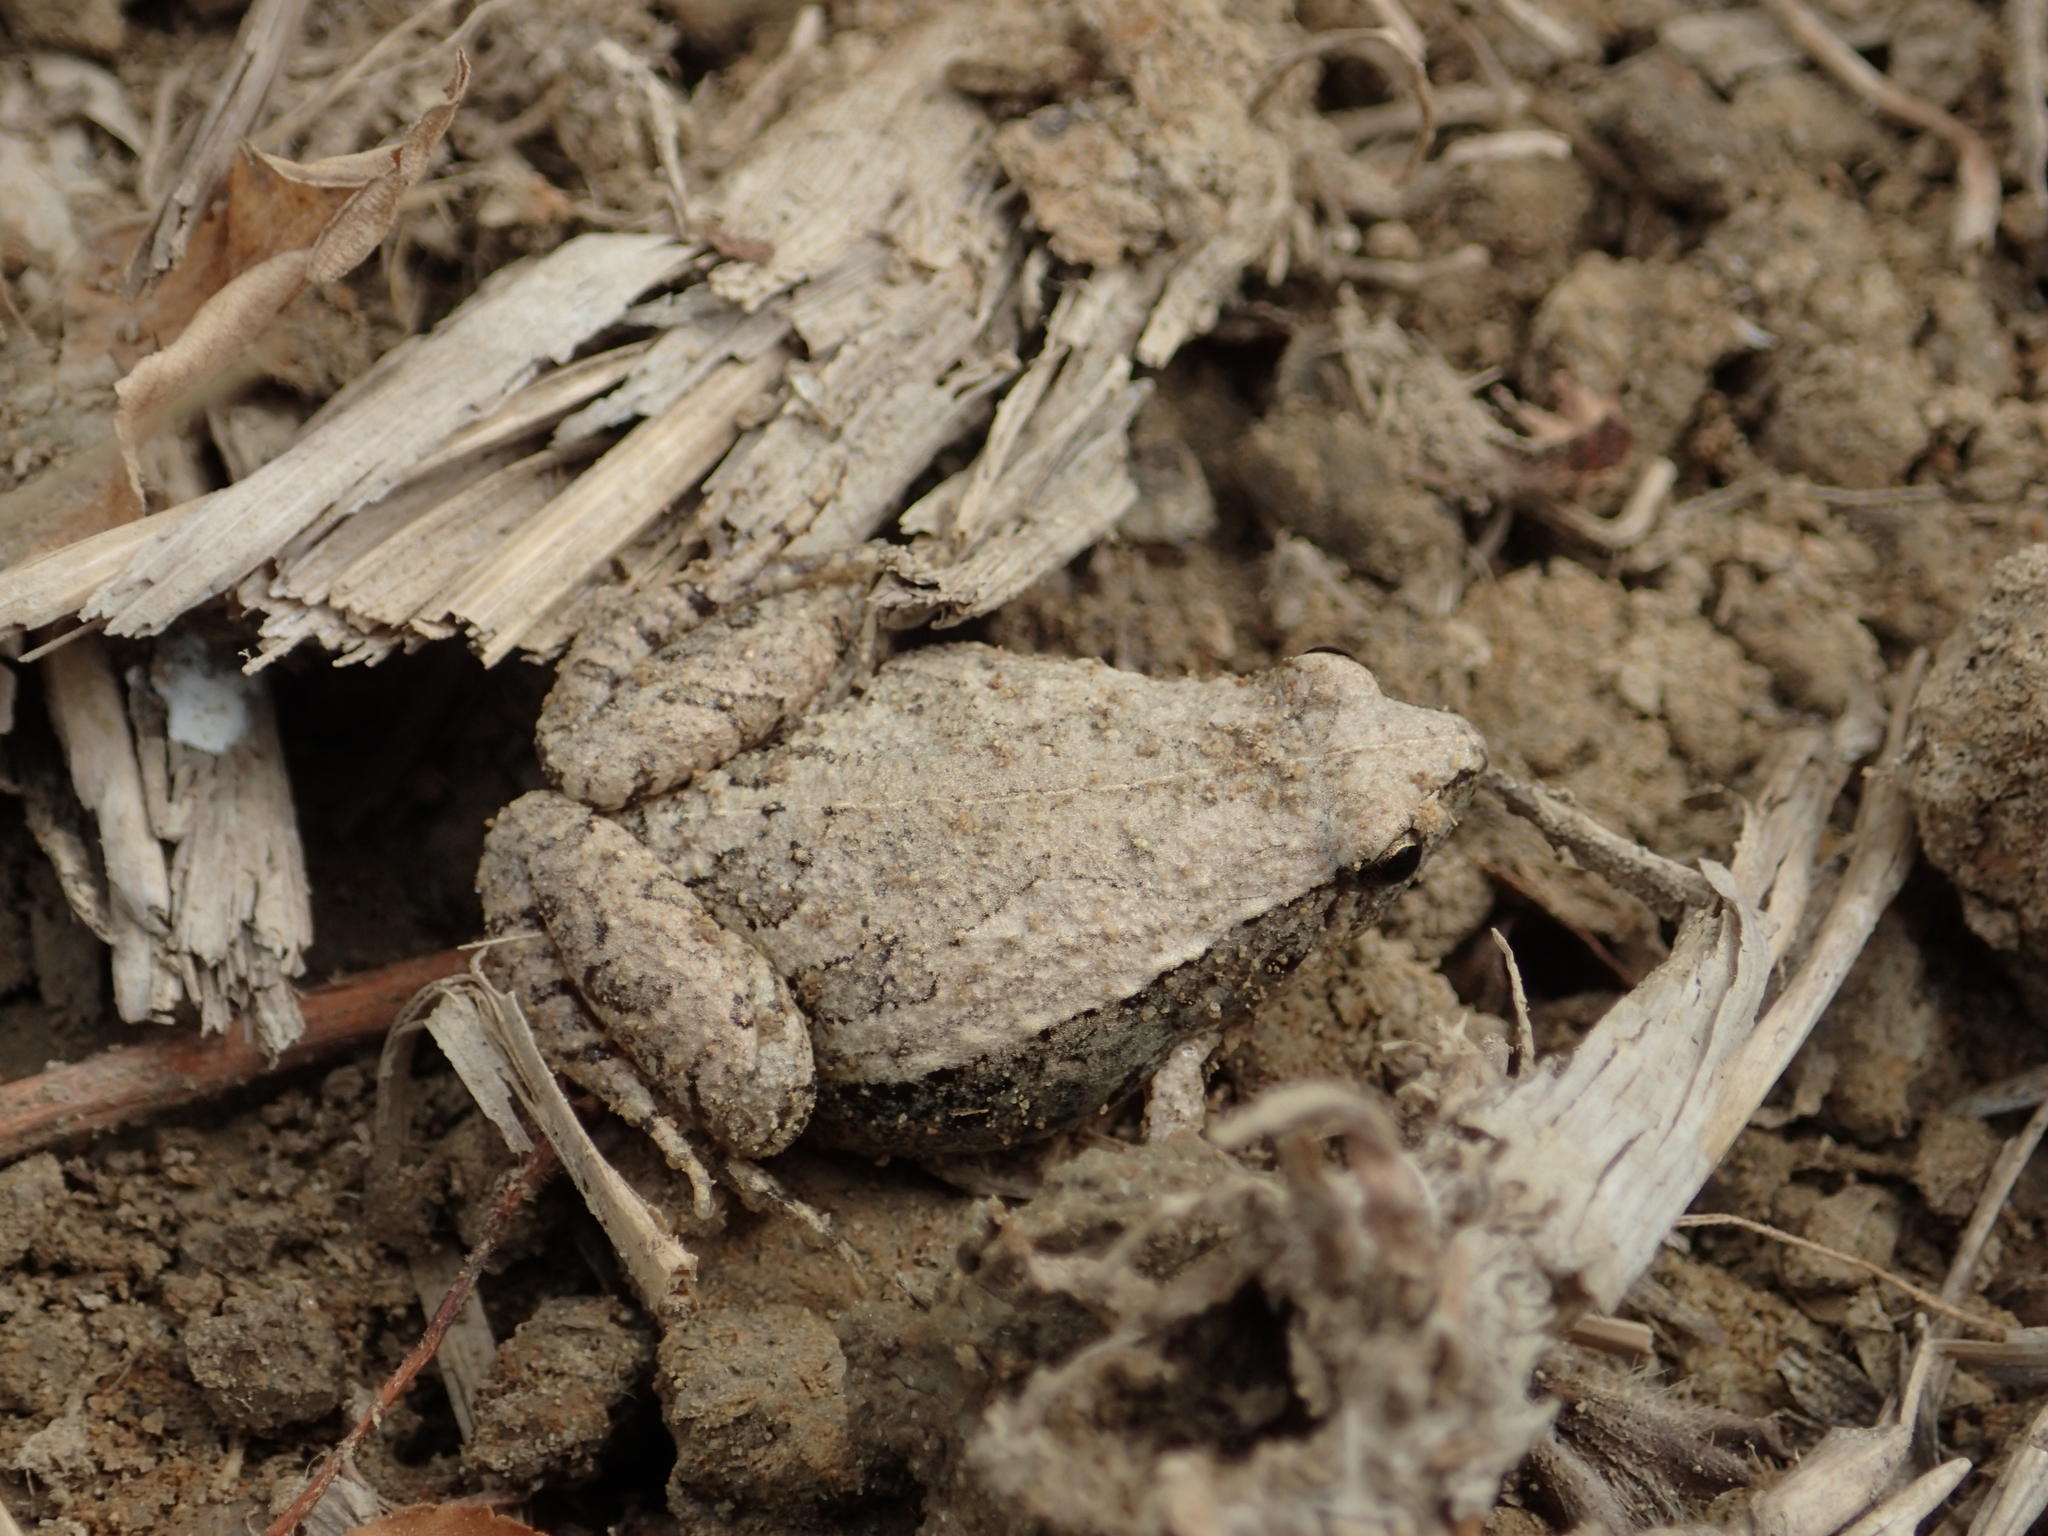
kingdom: Animalia
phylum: Chordata
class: Amphibia
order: Anura
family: Microhylidae
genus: Microhyla
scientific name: Microhyla heymonsi
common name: Taiwan rice frog,dark sided chorus frog
